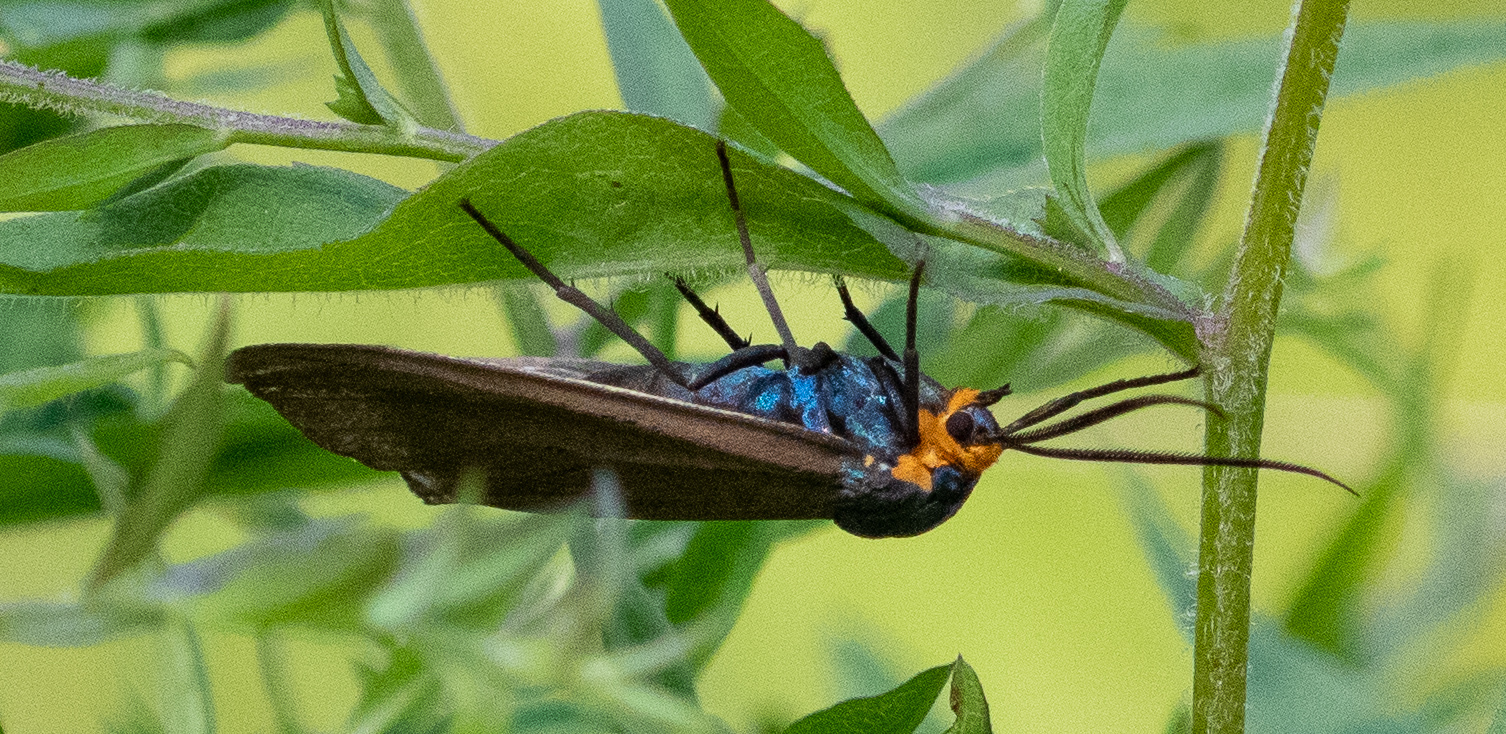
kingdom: Animalia
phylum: Arthropoda
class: Insecta
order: Lepidoptera
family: Erebidae
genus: Ctenucha
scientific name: Ctenucha virginica
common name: Virginia ctenucha moth
